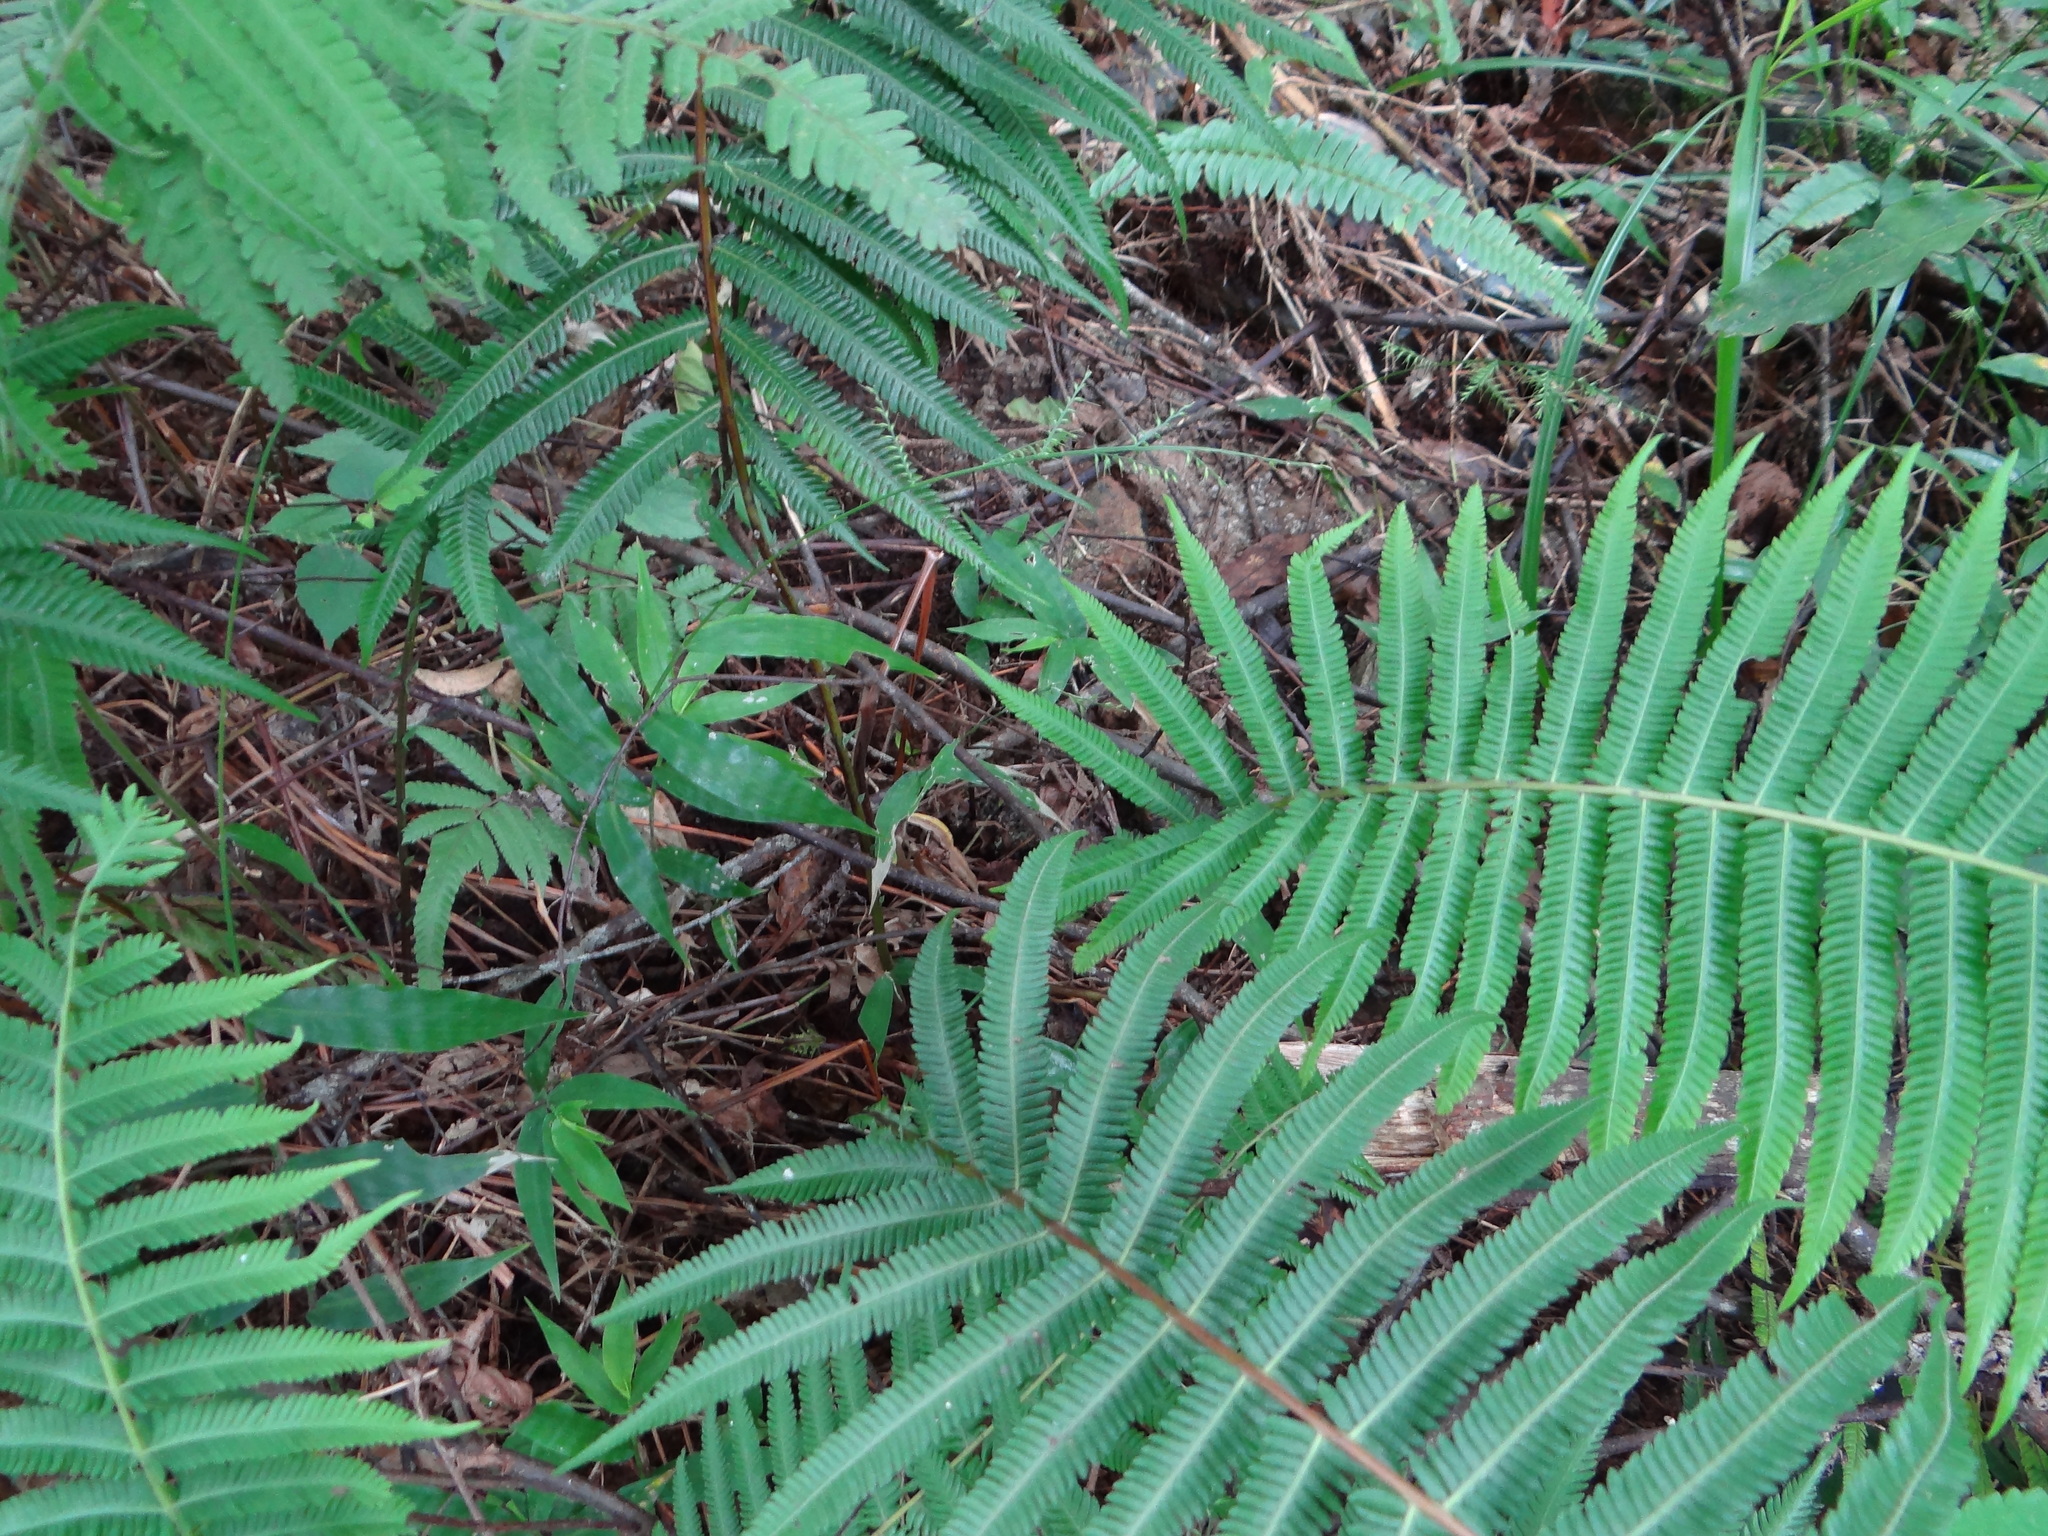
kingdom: Plantae
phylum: Tracheophyta
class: Polypodiopsida
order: Polypodiales
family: Thelypteridaceae
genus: Pseudocyclosorus
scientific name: Pseudocyclosorus esquirolii
